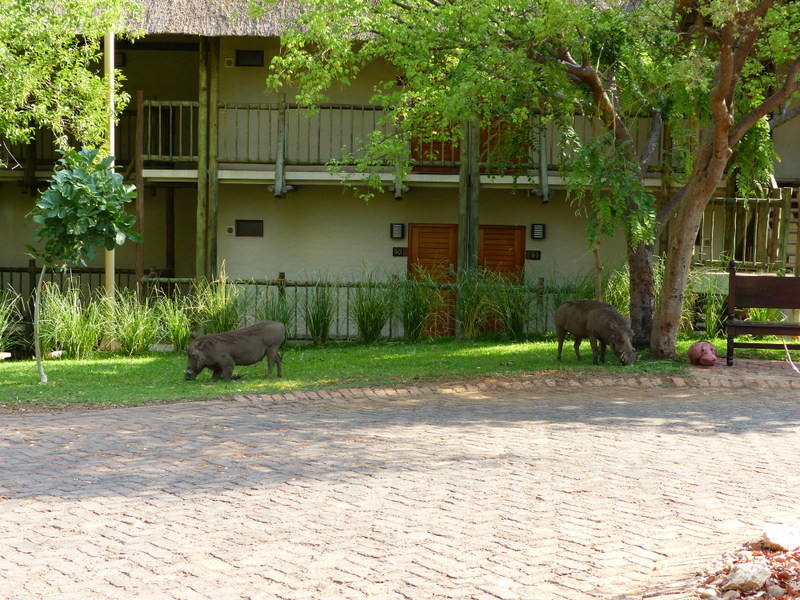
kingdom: Animalia
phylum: Chordata
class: Mammalia
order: Artiodactyla
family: Suidae
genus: Phacochoerus
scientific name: Phacochoerus africanus
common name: Common warthog
